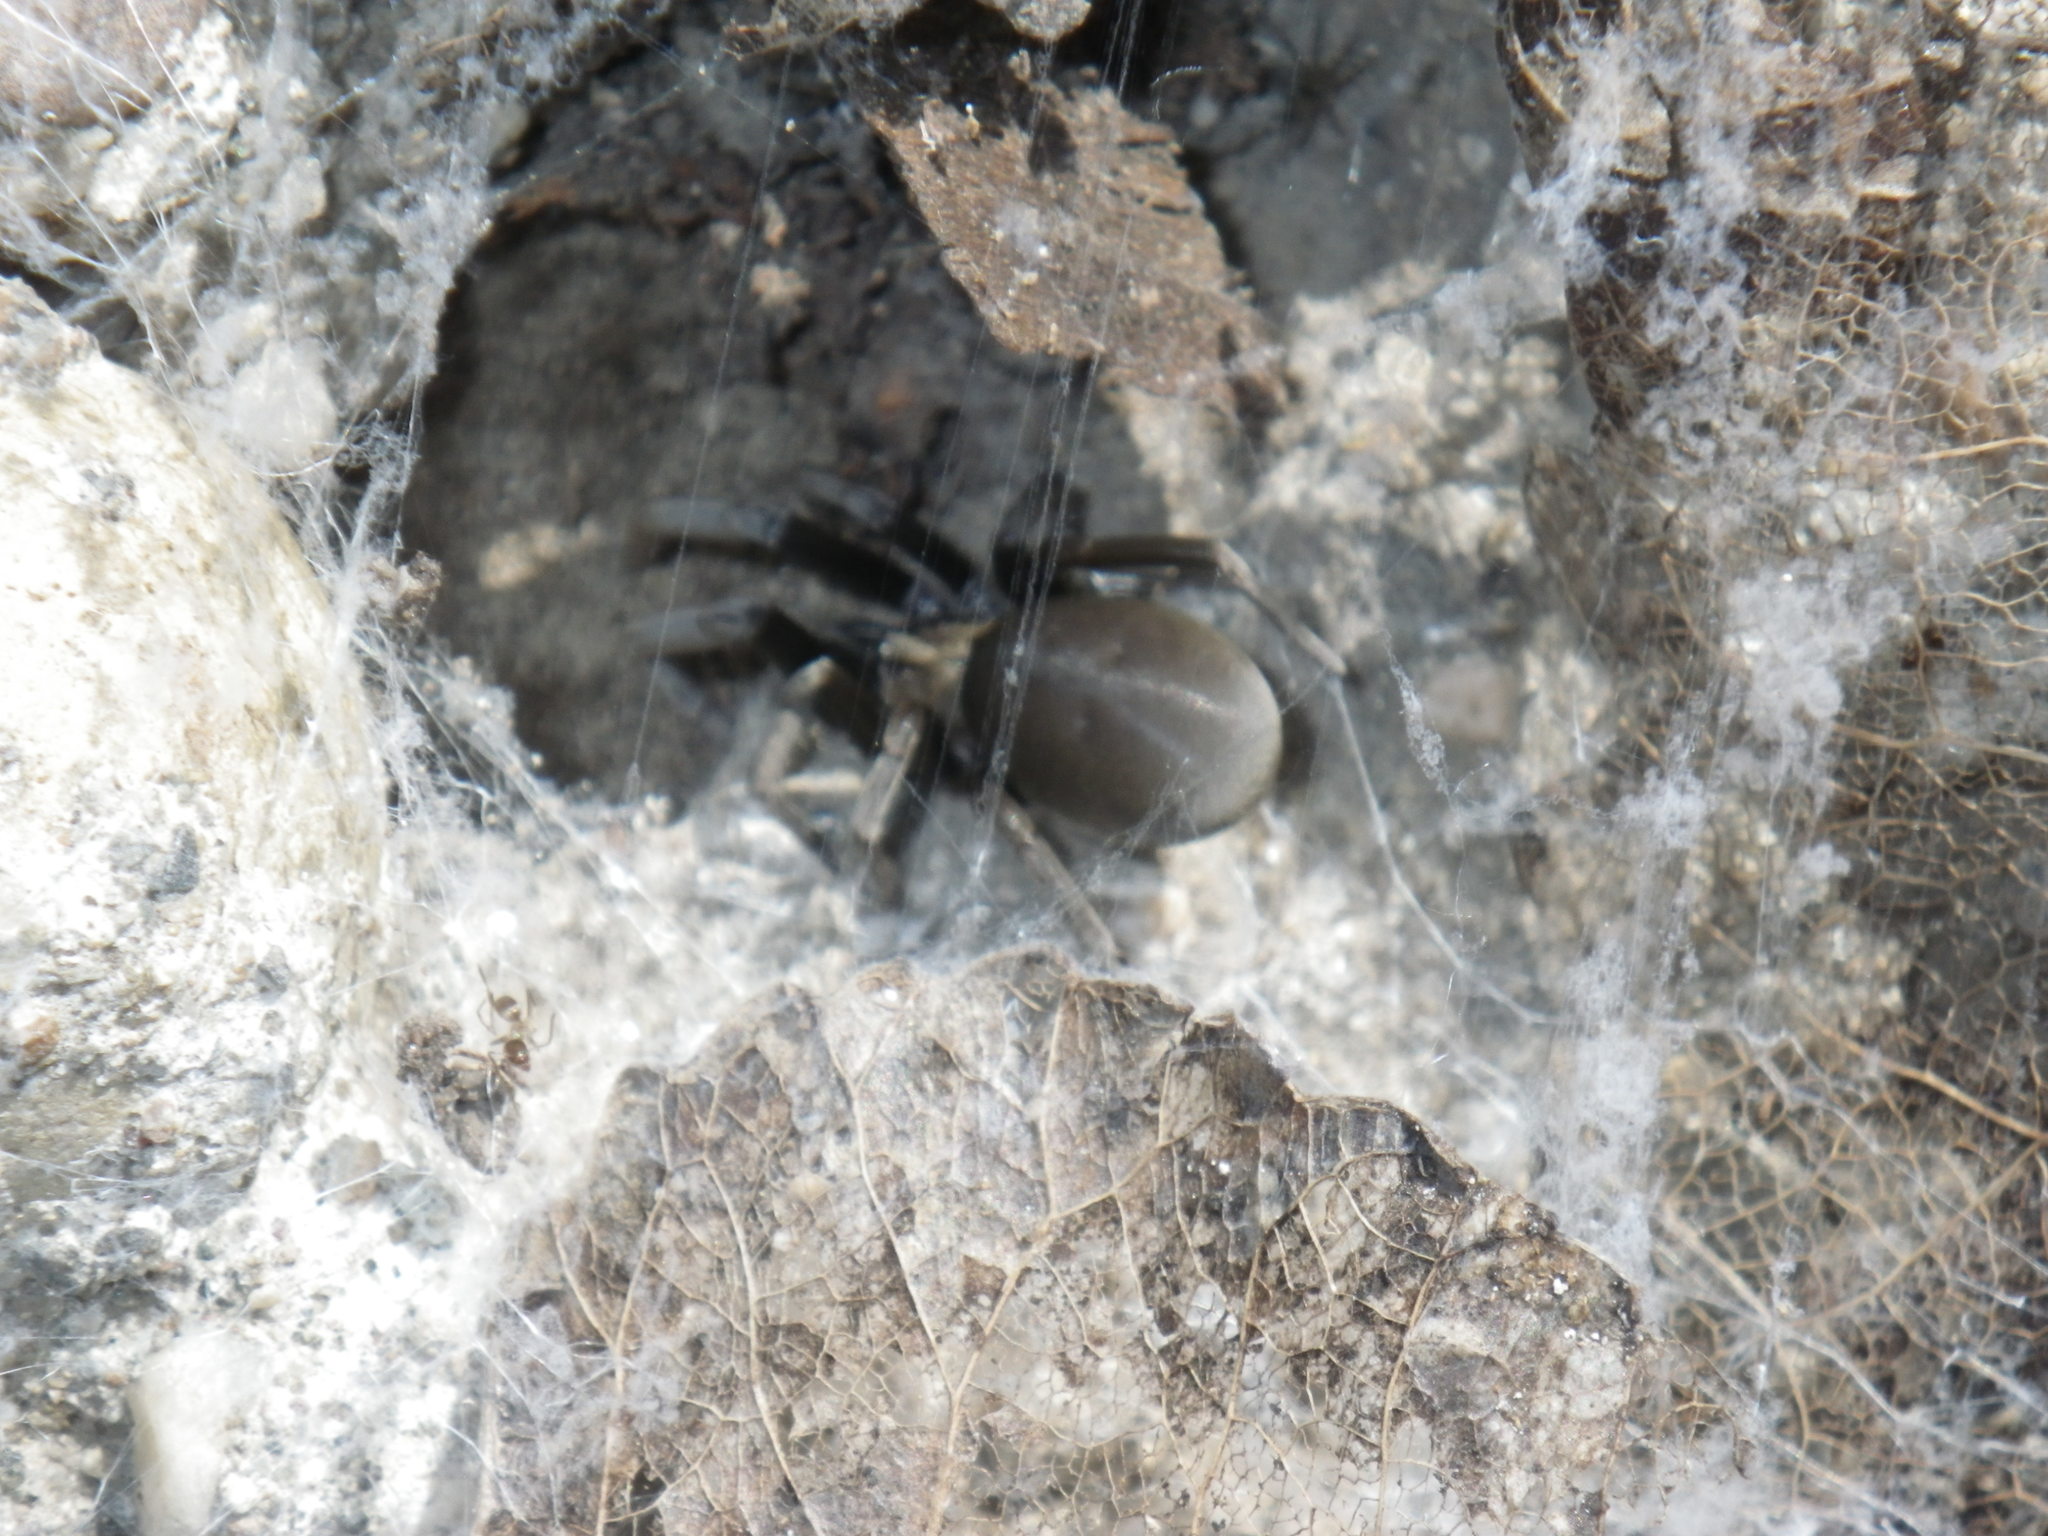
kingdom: Animalia
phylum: Arthropoda
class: Arachnida
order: Araneae
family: Filistatidae
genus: Kukulcania
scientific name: Kukulcania
